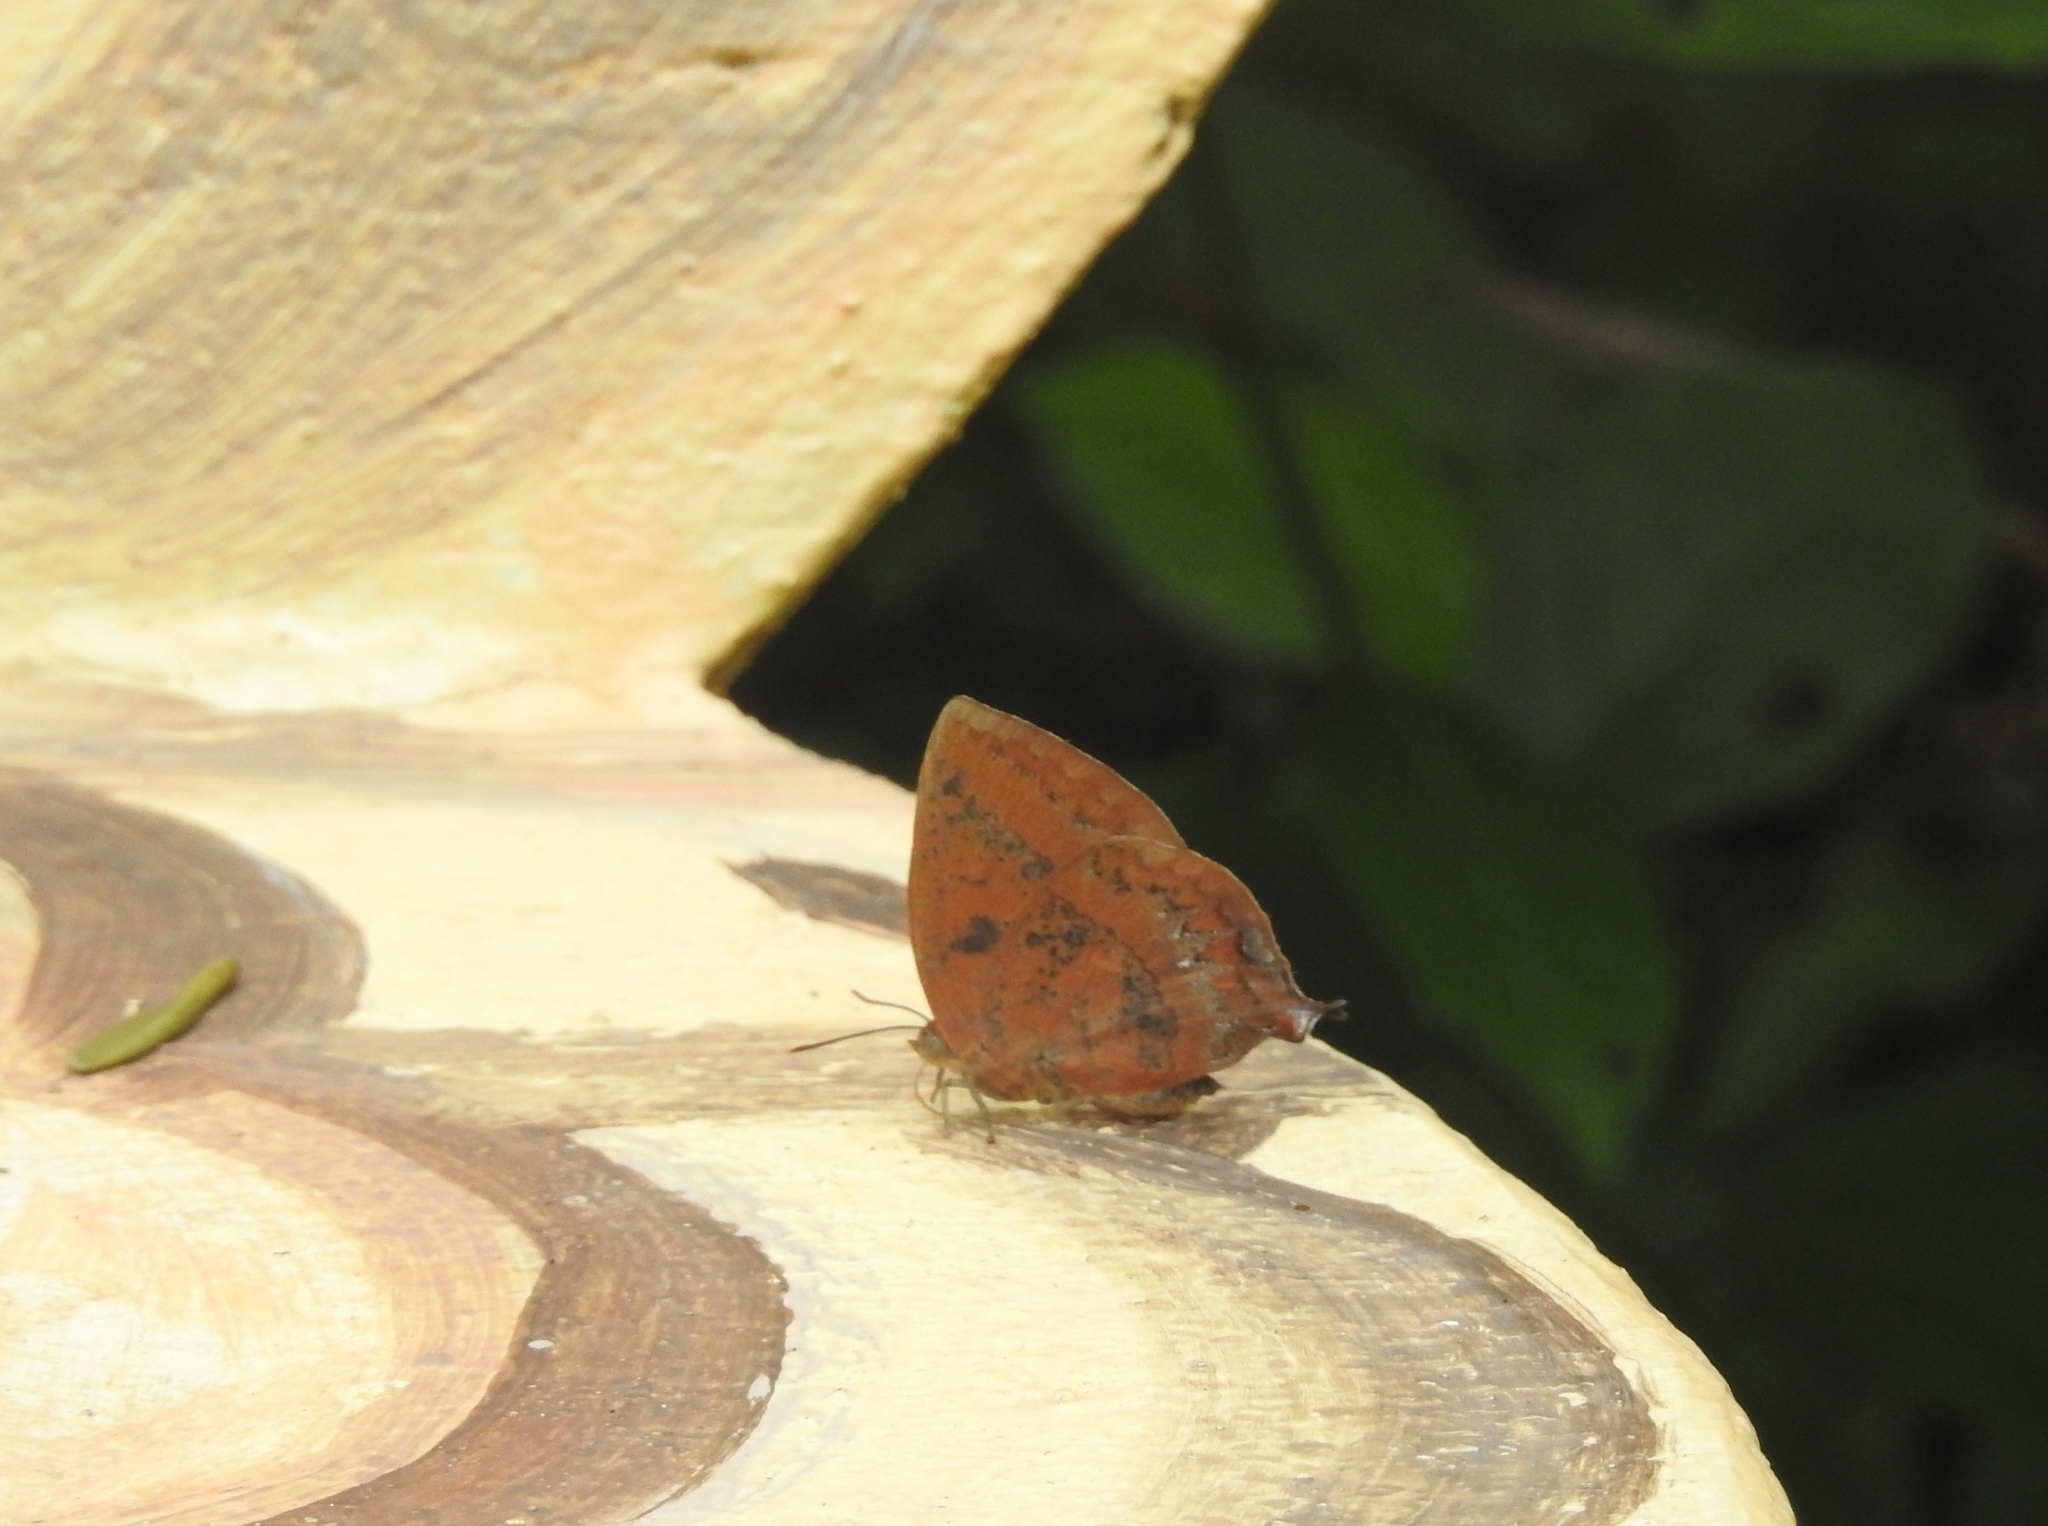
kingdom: Animalia
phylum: Arthropoda
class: Insecta
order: Lepidoptera
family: Lycaenidae
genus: Amblypodia
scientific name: Amblypodia anita
